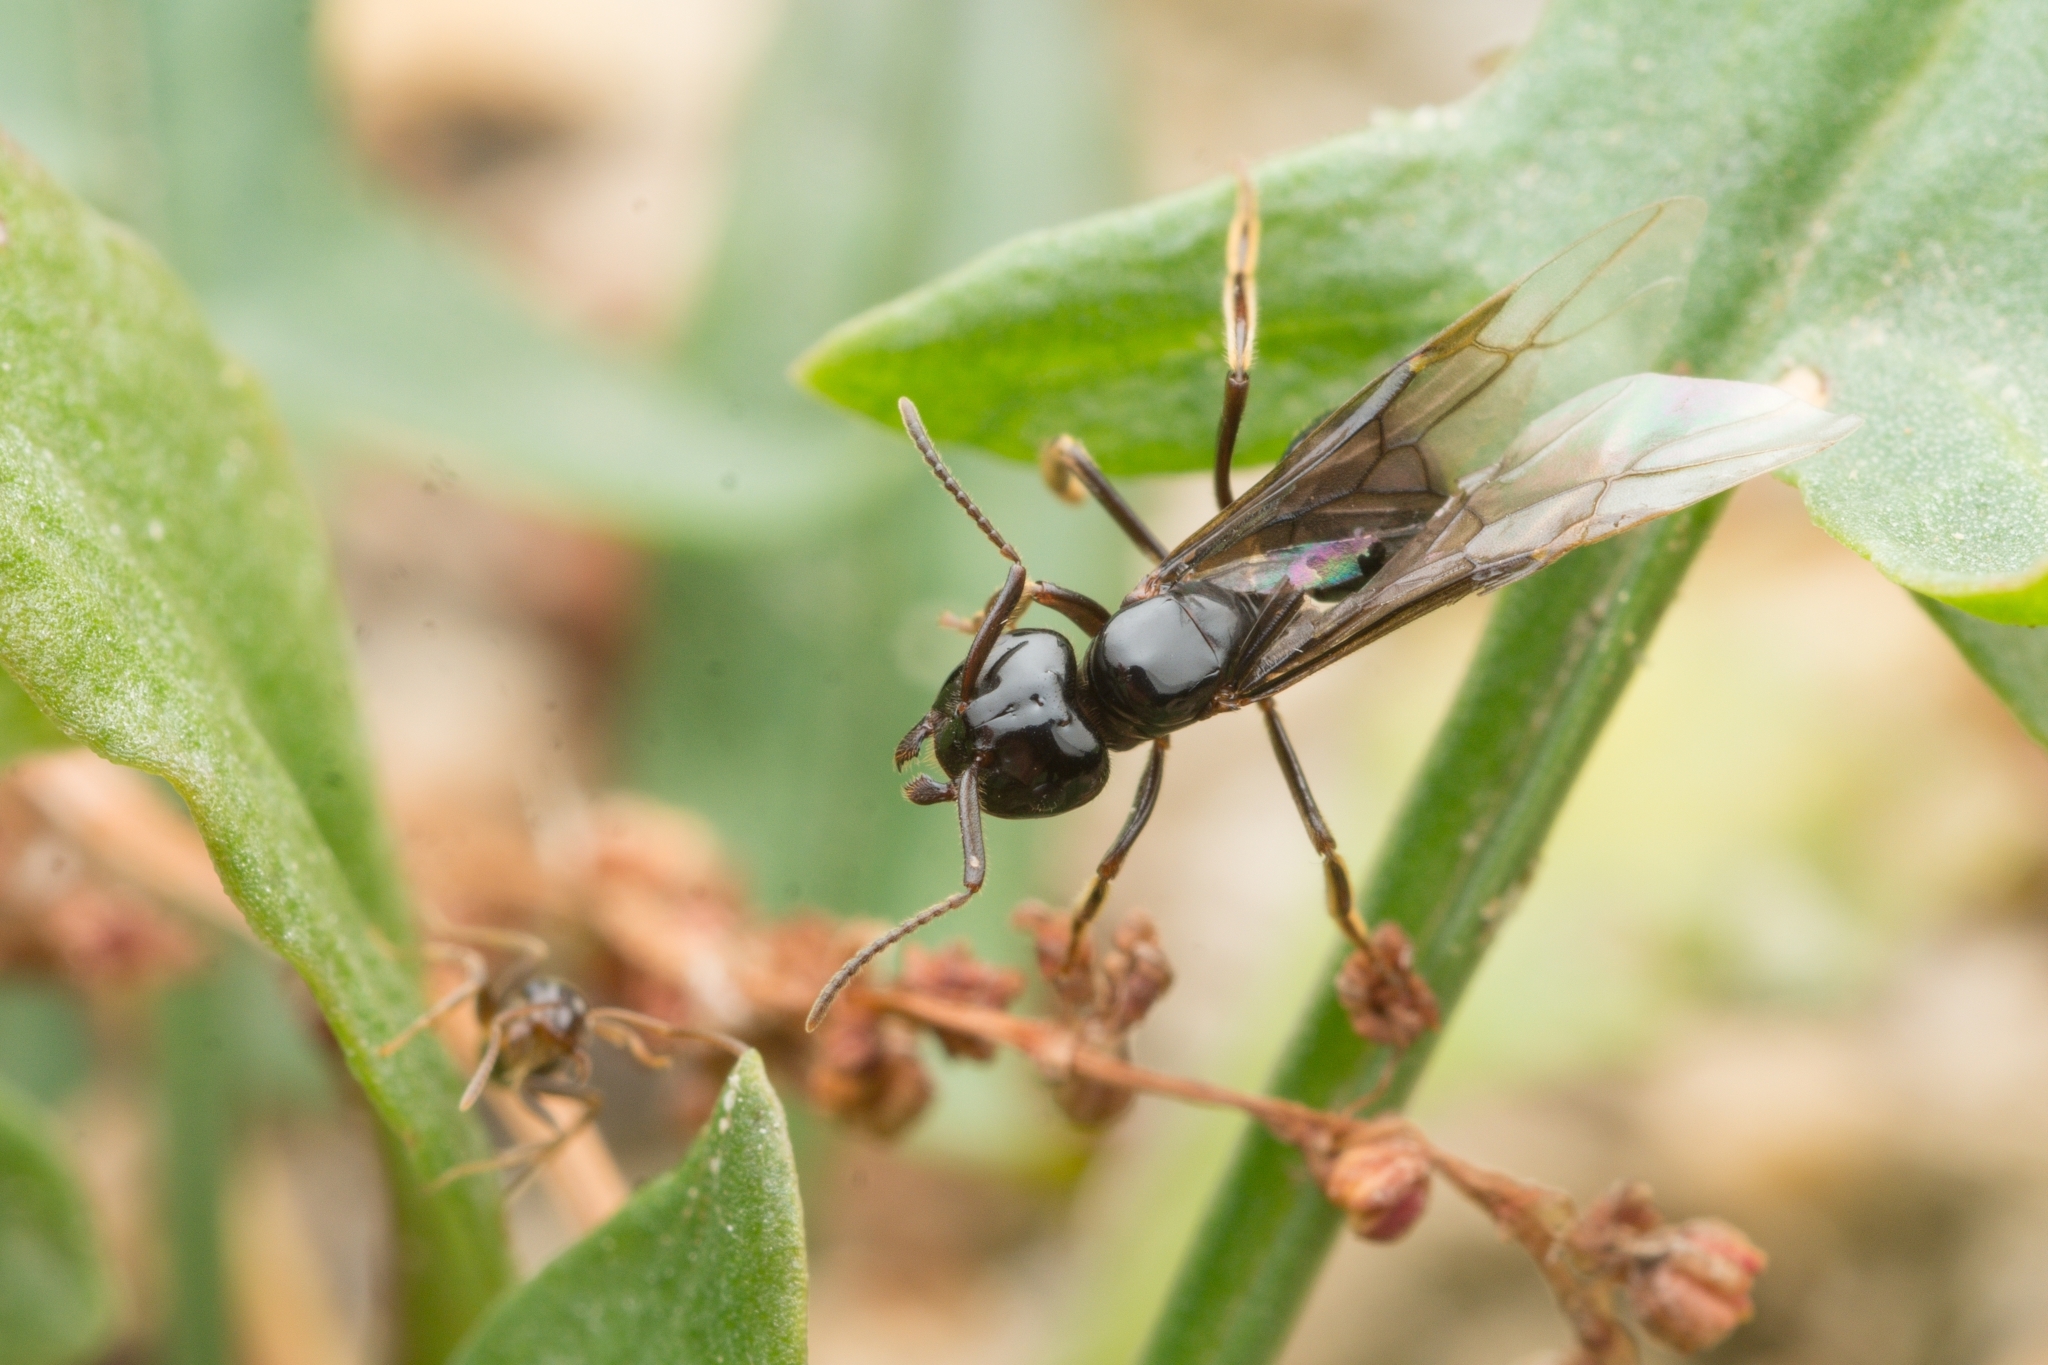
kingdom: Animalia
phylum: Arthropoda
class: Insecta
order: Hymenoptera
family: Formicidae
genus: Lasius
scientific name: Lasius spathepus
